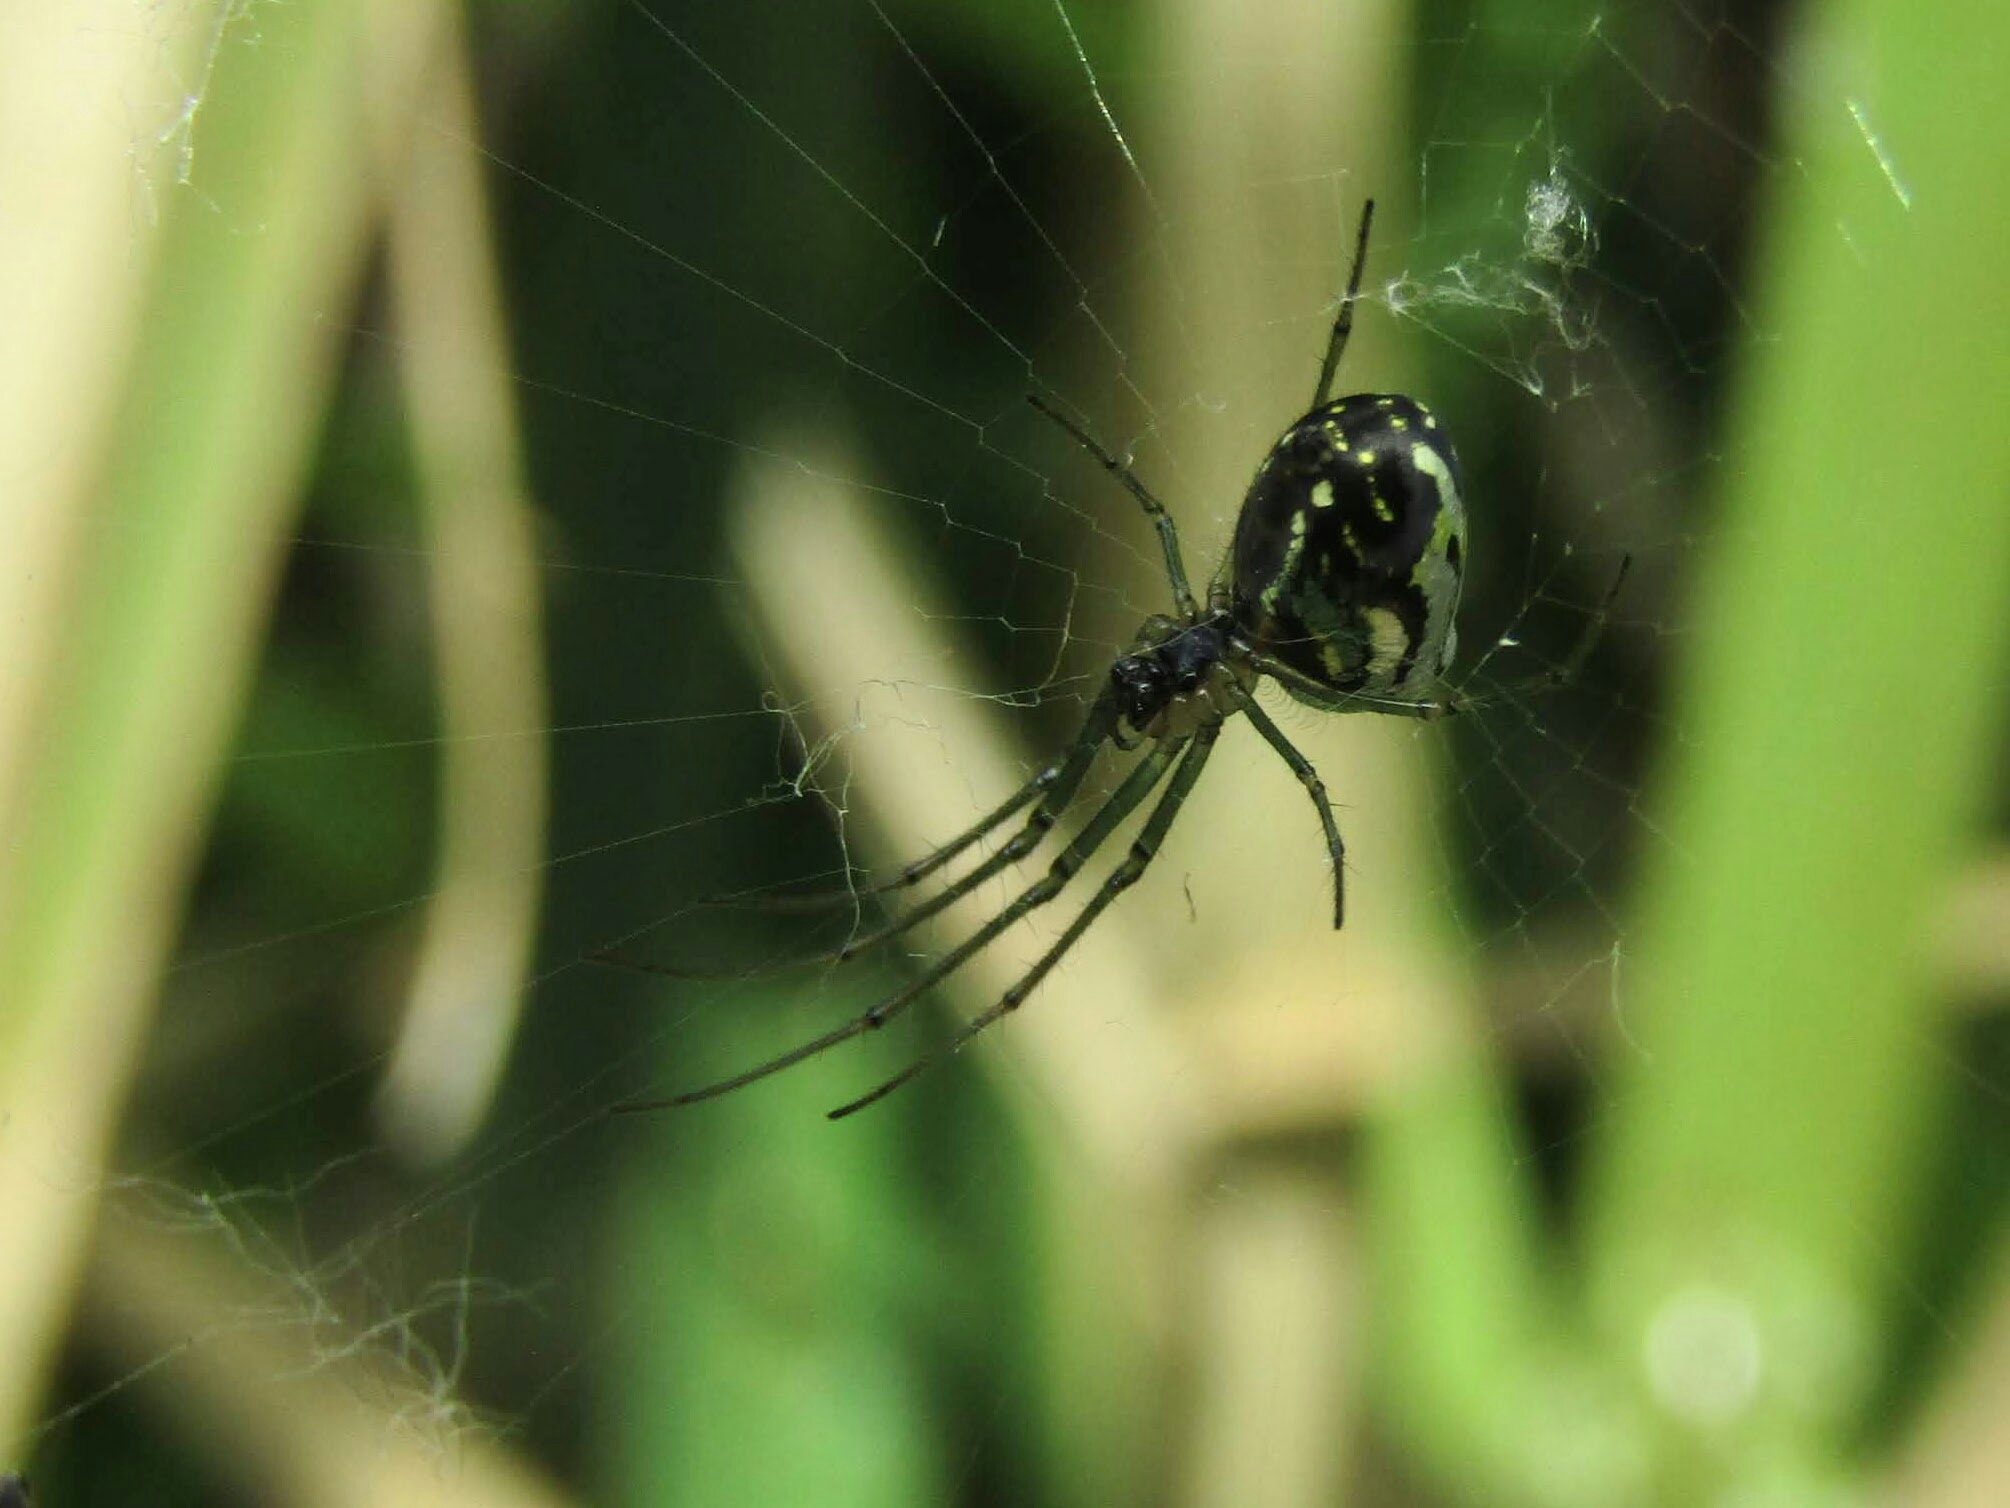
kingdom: Animalia
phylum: Arthropoda
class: Arachnida
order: Araneae
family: Tetragnathidae
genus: Leucauge
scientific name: Leucauge volupis
